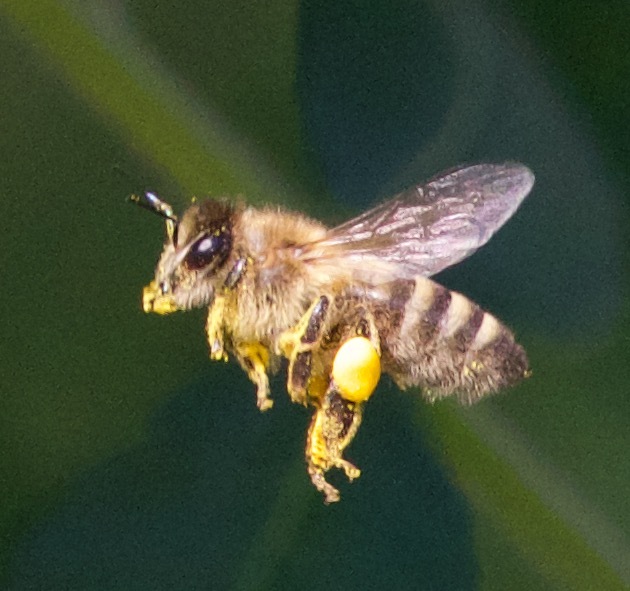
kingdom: Animalia
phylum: Arthropoda
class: Insecta
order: Hymenoptera
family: Apidae
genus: Apis
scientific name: Apis mellifera
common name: Honey bee
